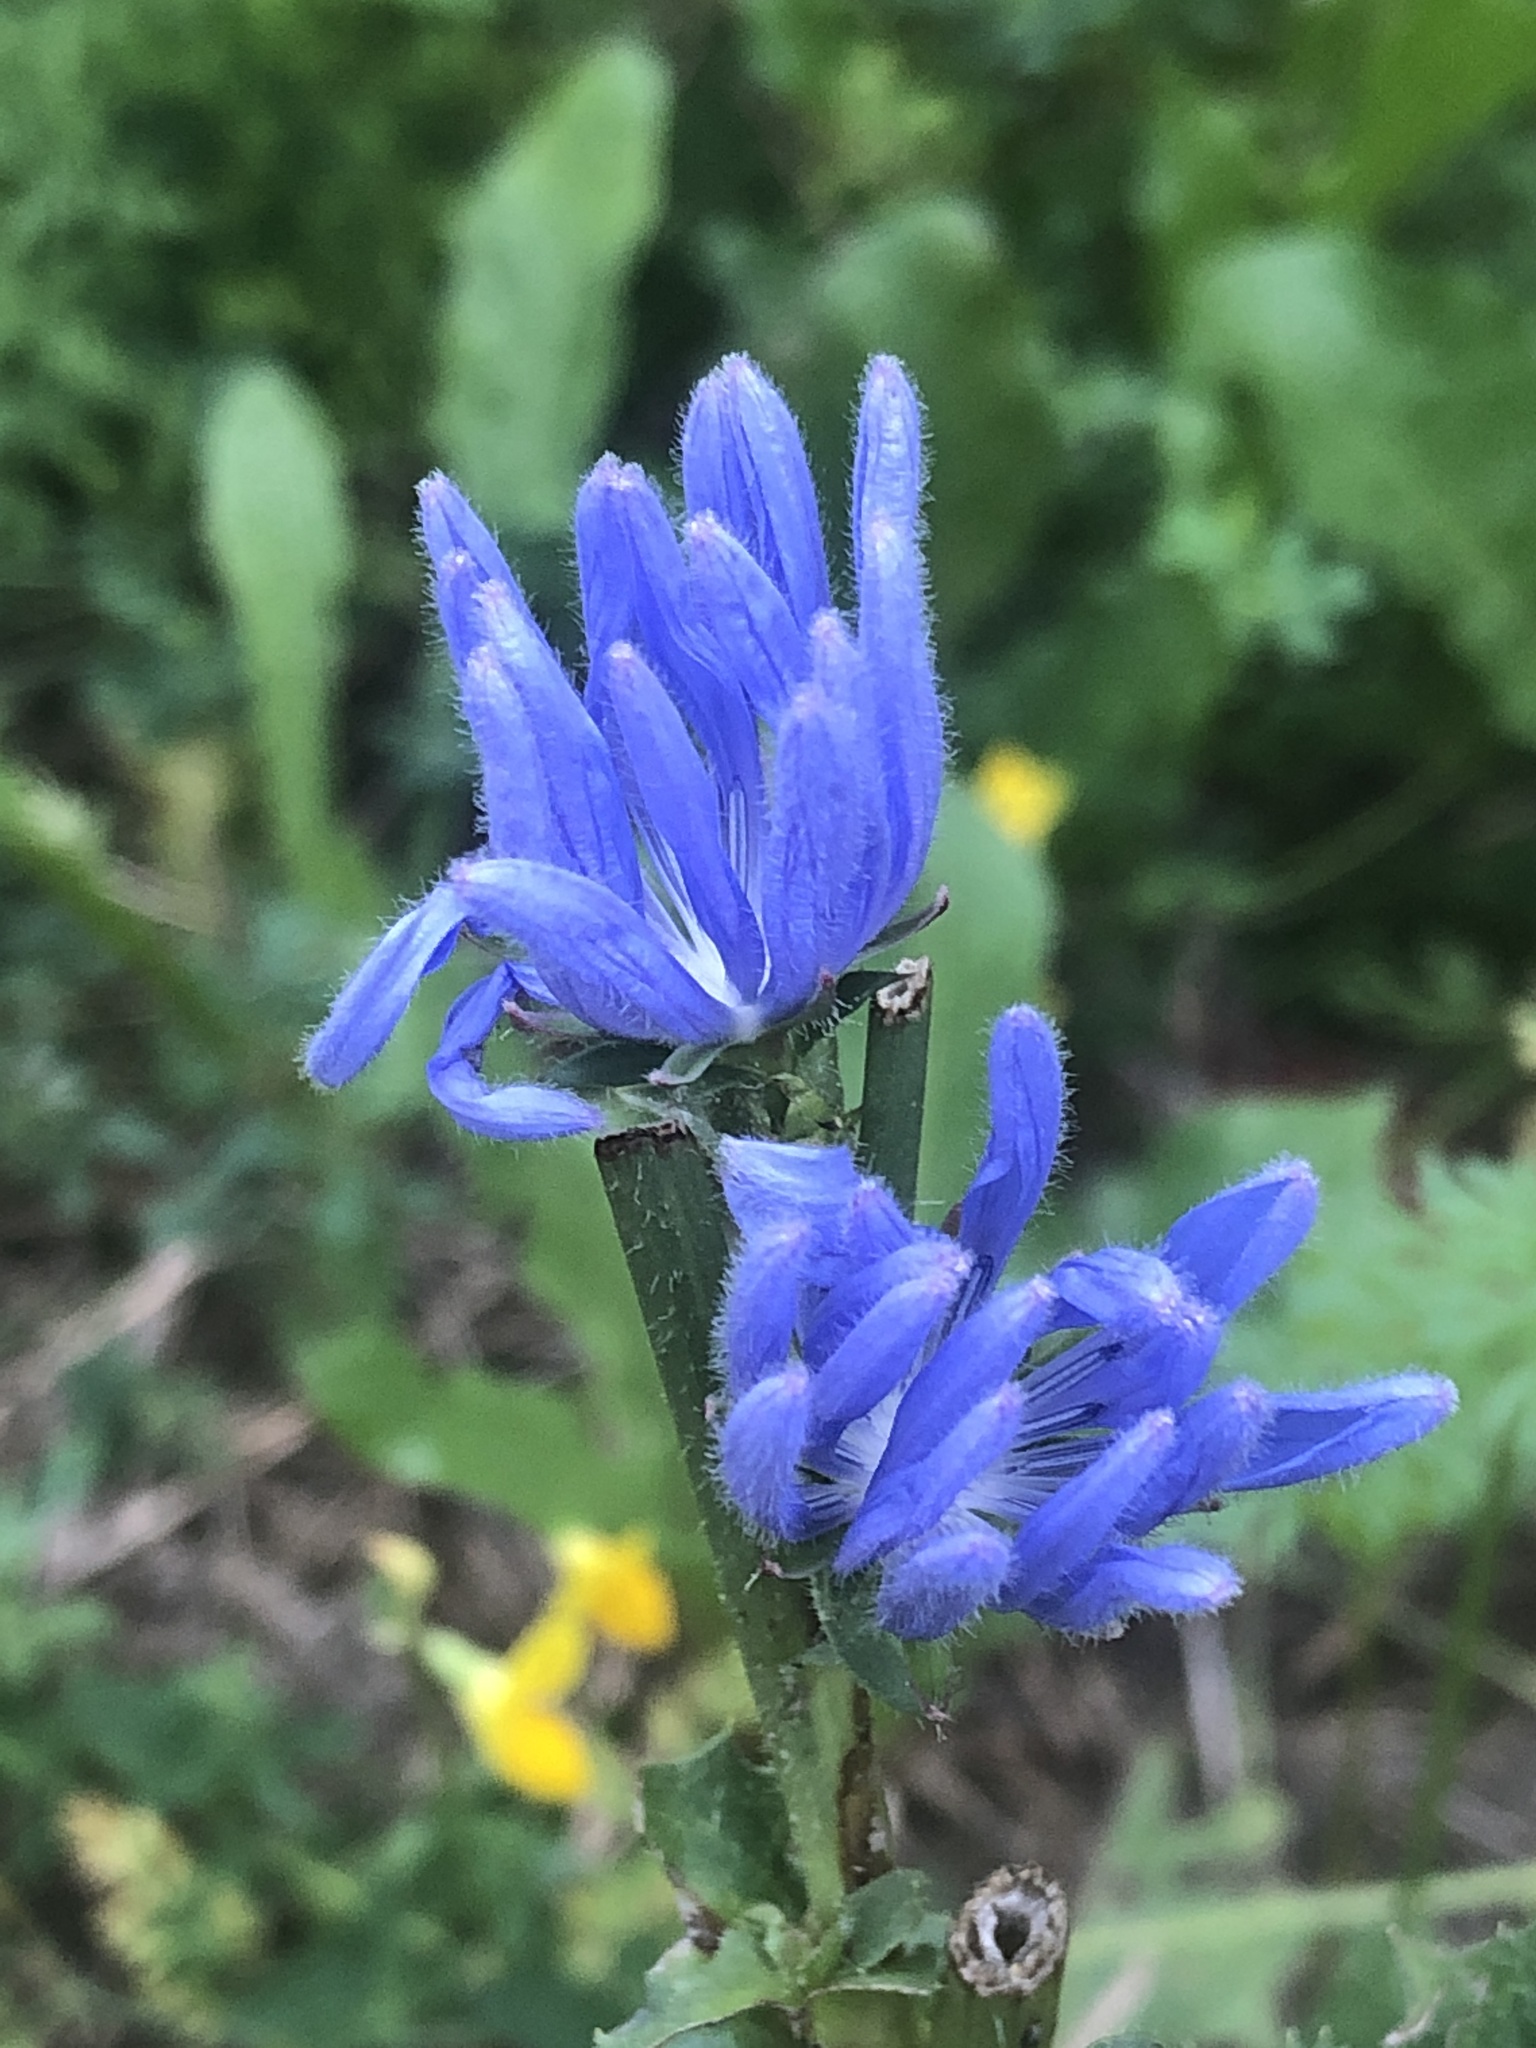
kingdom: Plantae
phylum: Tracheophyta
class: Magnoliopsida
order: Asterales
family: Asteraceae
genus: Cichorium
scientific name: Cichorium intybus
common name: Chicory
